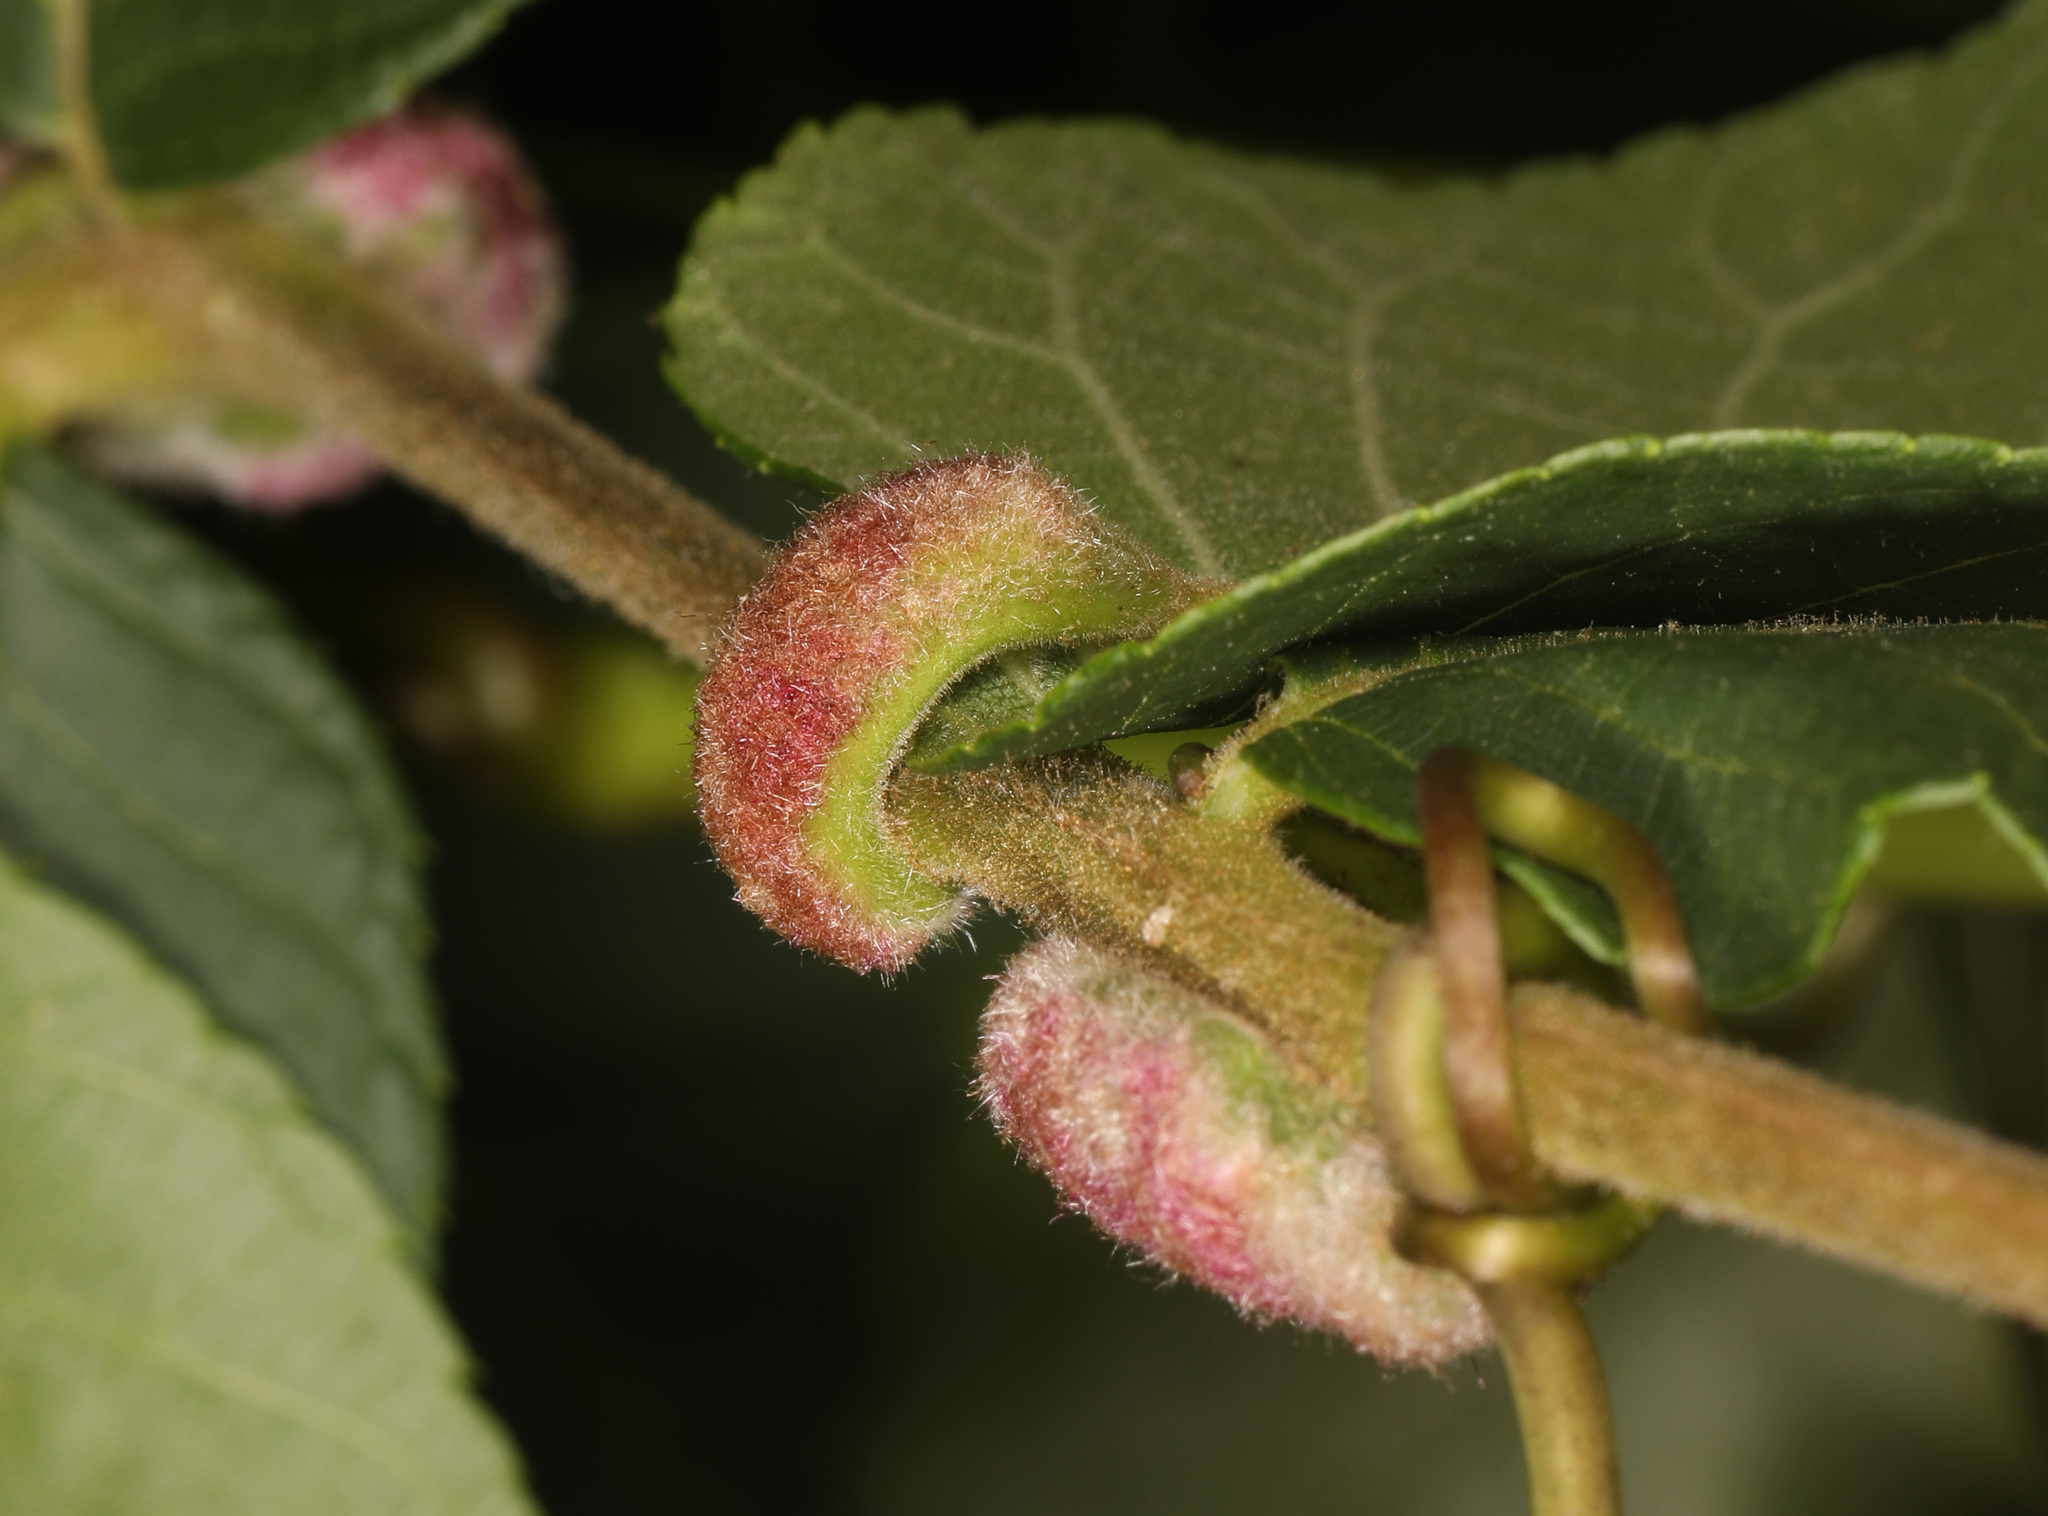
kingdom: Animalia
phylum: Arthropoda
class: Arachnida
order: Trombidiformes
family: Eriophyidae
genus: Aceria
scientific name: Aceria
